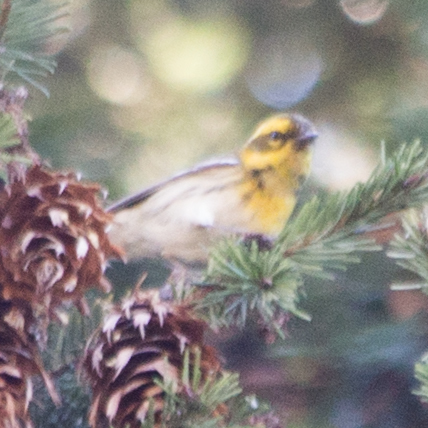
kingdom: Animalia
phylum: Chordata
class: Aves
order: Passeriformes
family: Parulidae
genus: Setophaga
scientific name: Setophaga townsendi
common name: Townsend's warbler
